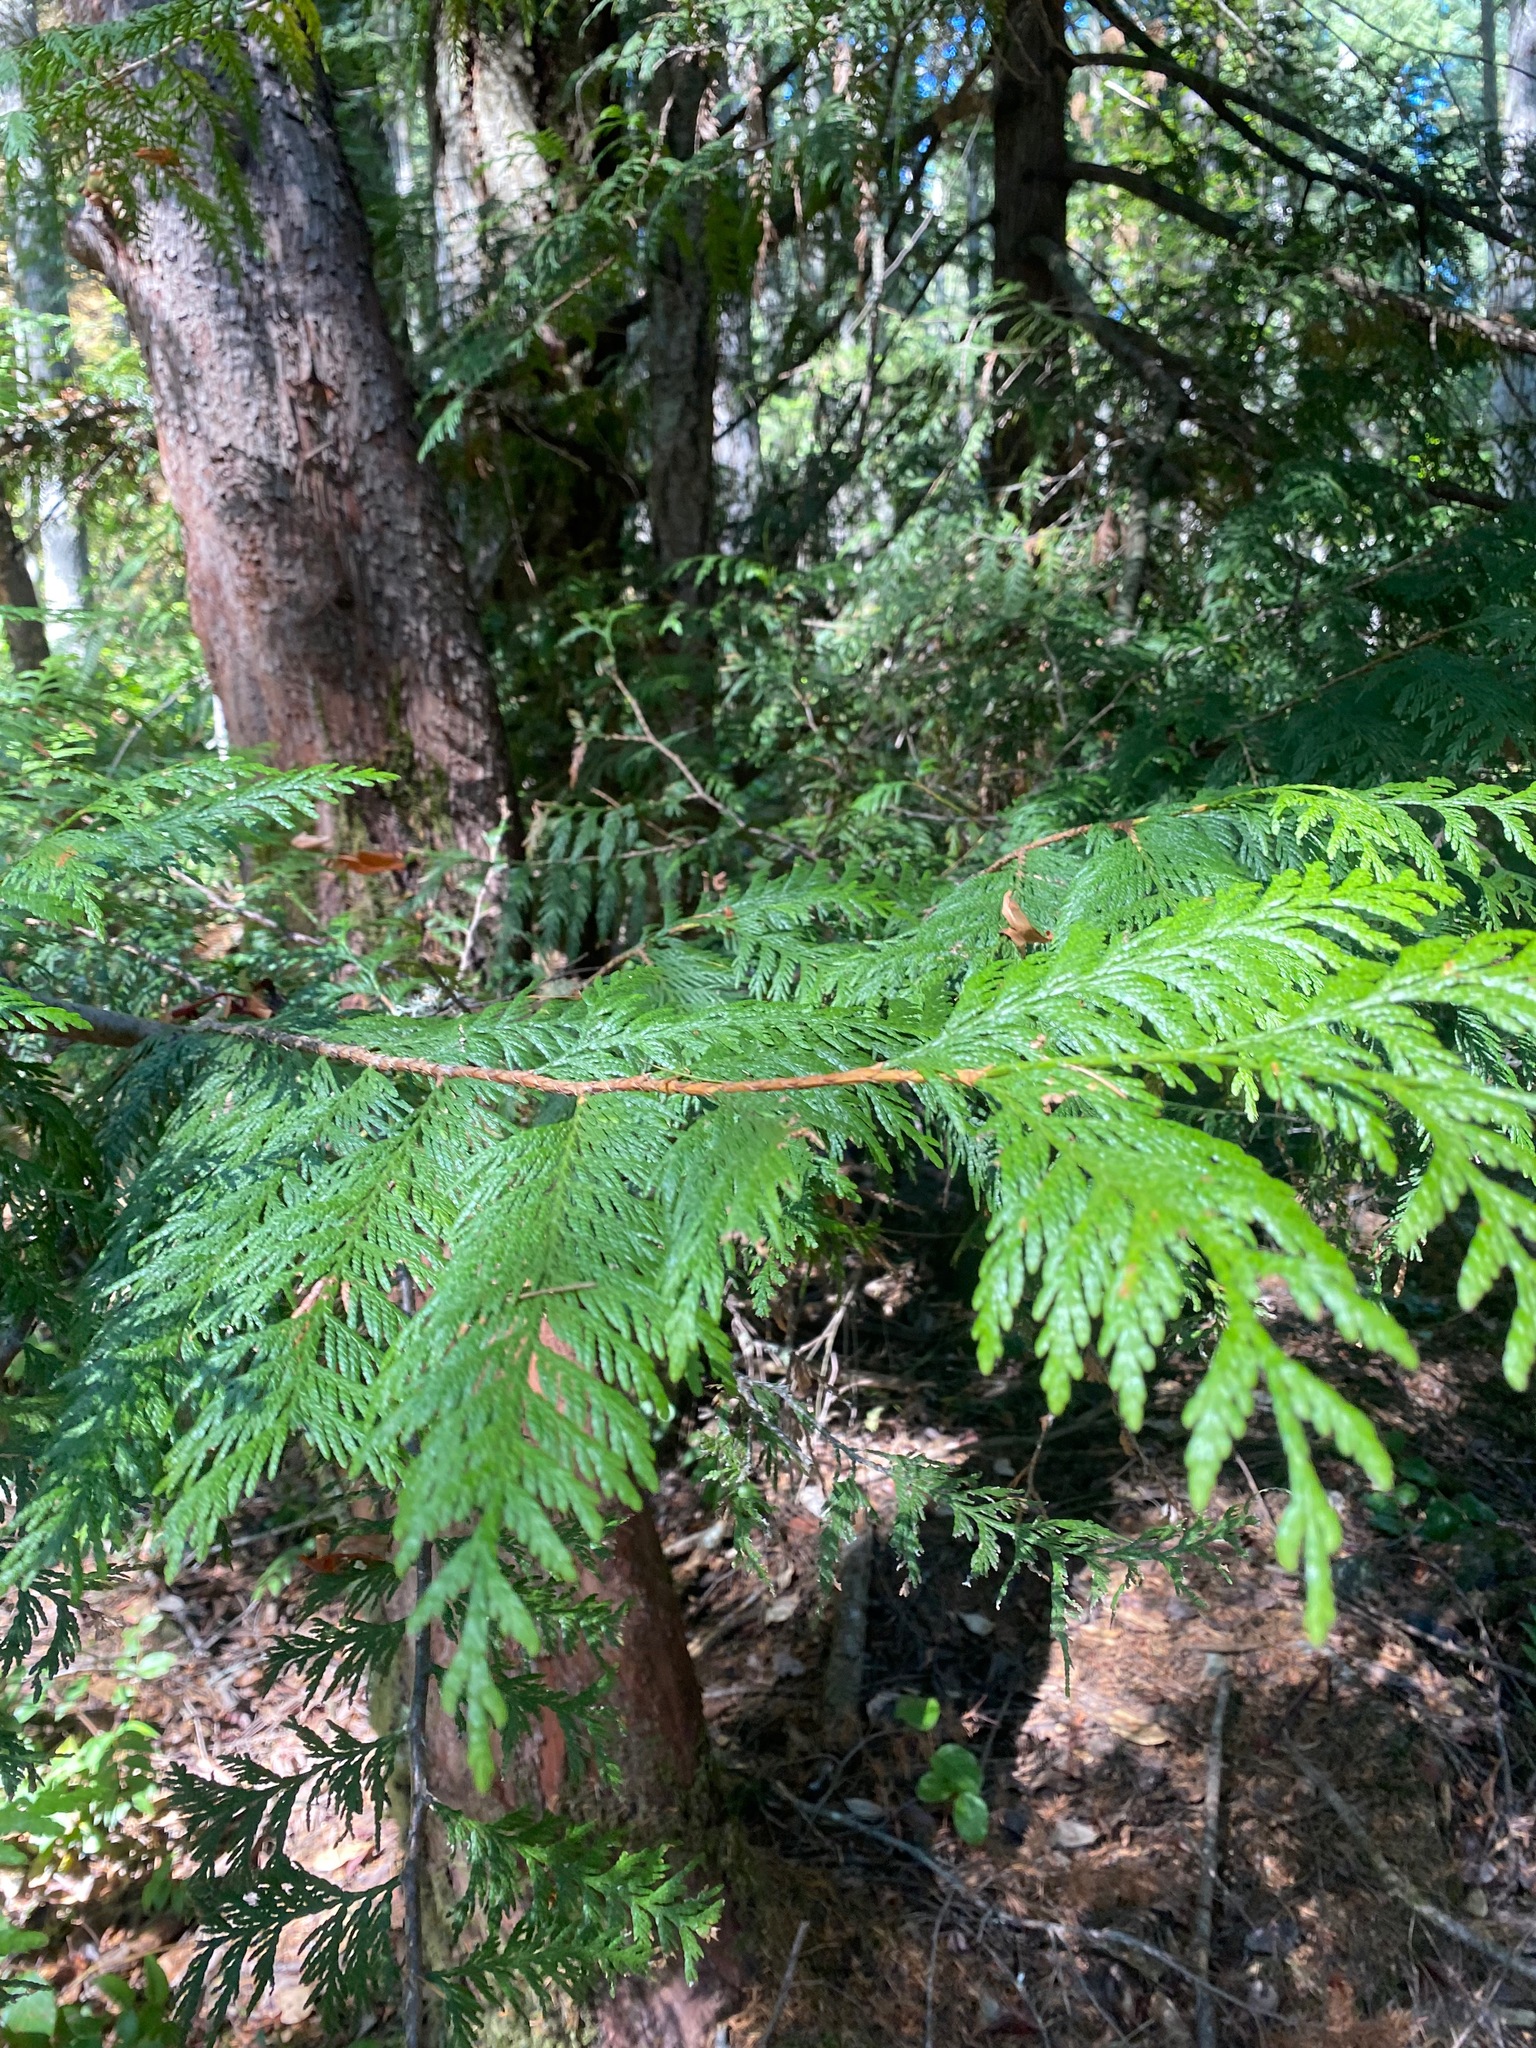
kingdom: Plantae
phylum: Tracheophyta
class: Pinopsida
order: Pinales
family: Cupressaceae
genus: Thuja
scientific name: Thuja plicata
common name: Western red-cedar
